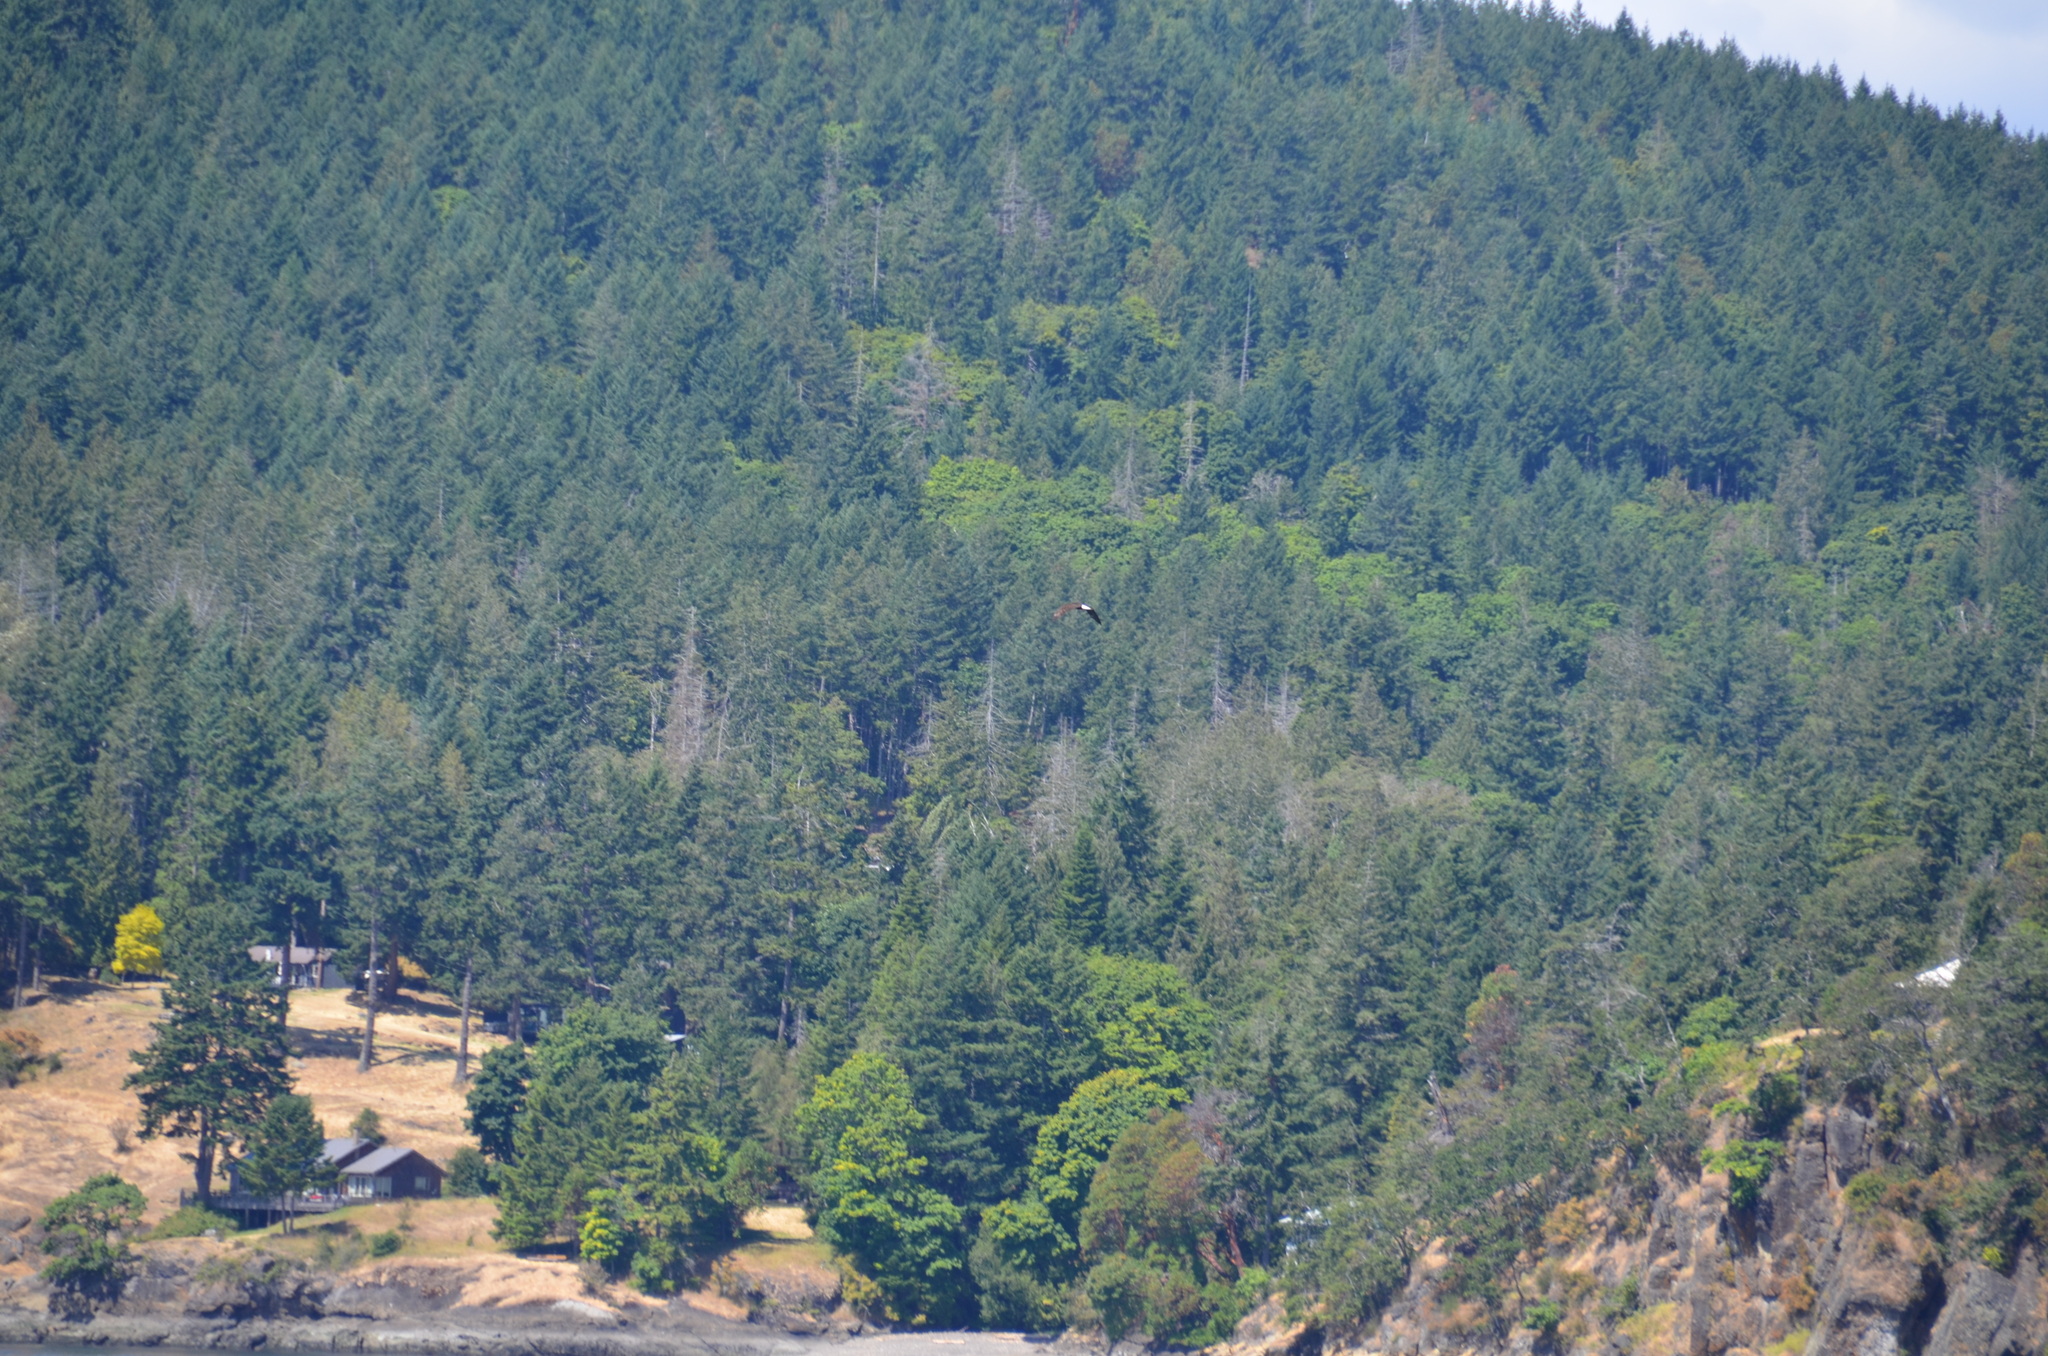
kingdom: Animalia
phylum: Chordata
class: Aves
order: Accipitriformes
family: Accipitridae
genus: Haliaeetus
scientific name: Haliaeetus leucocephalus
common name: Bald eagle
